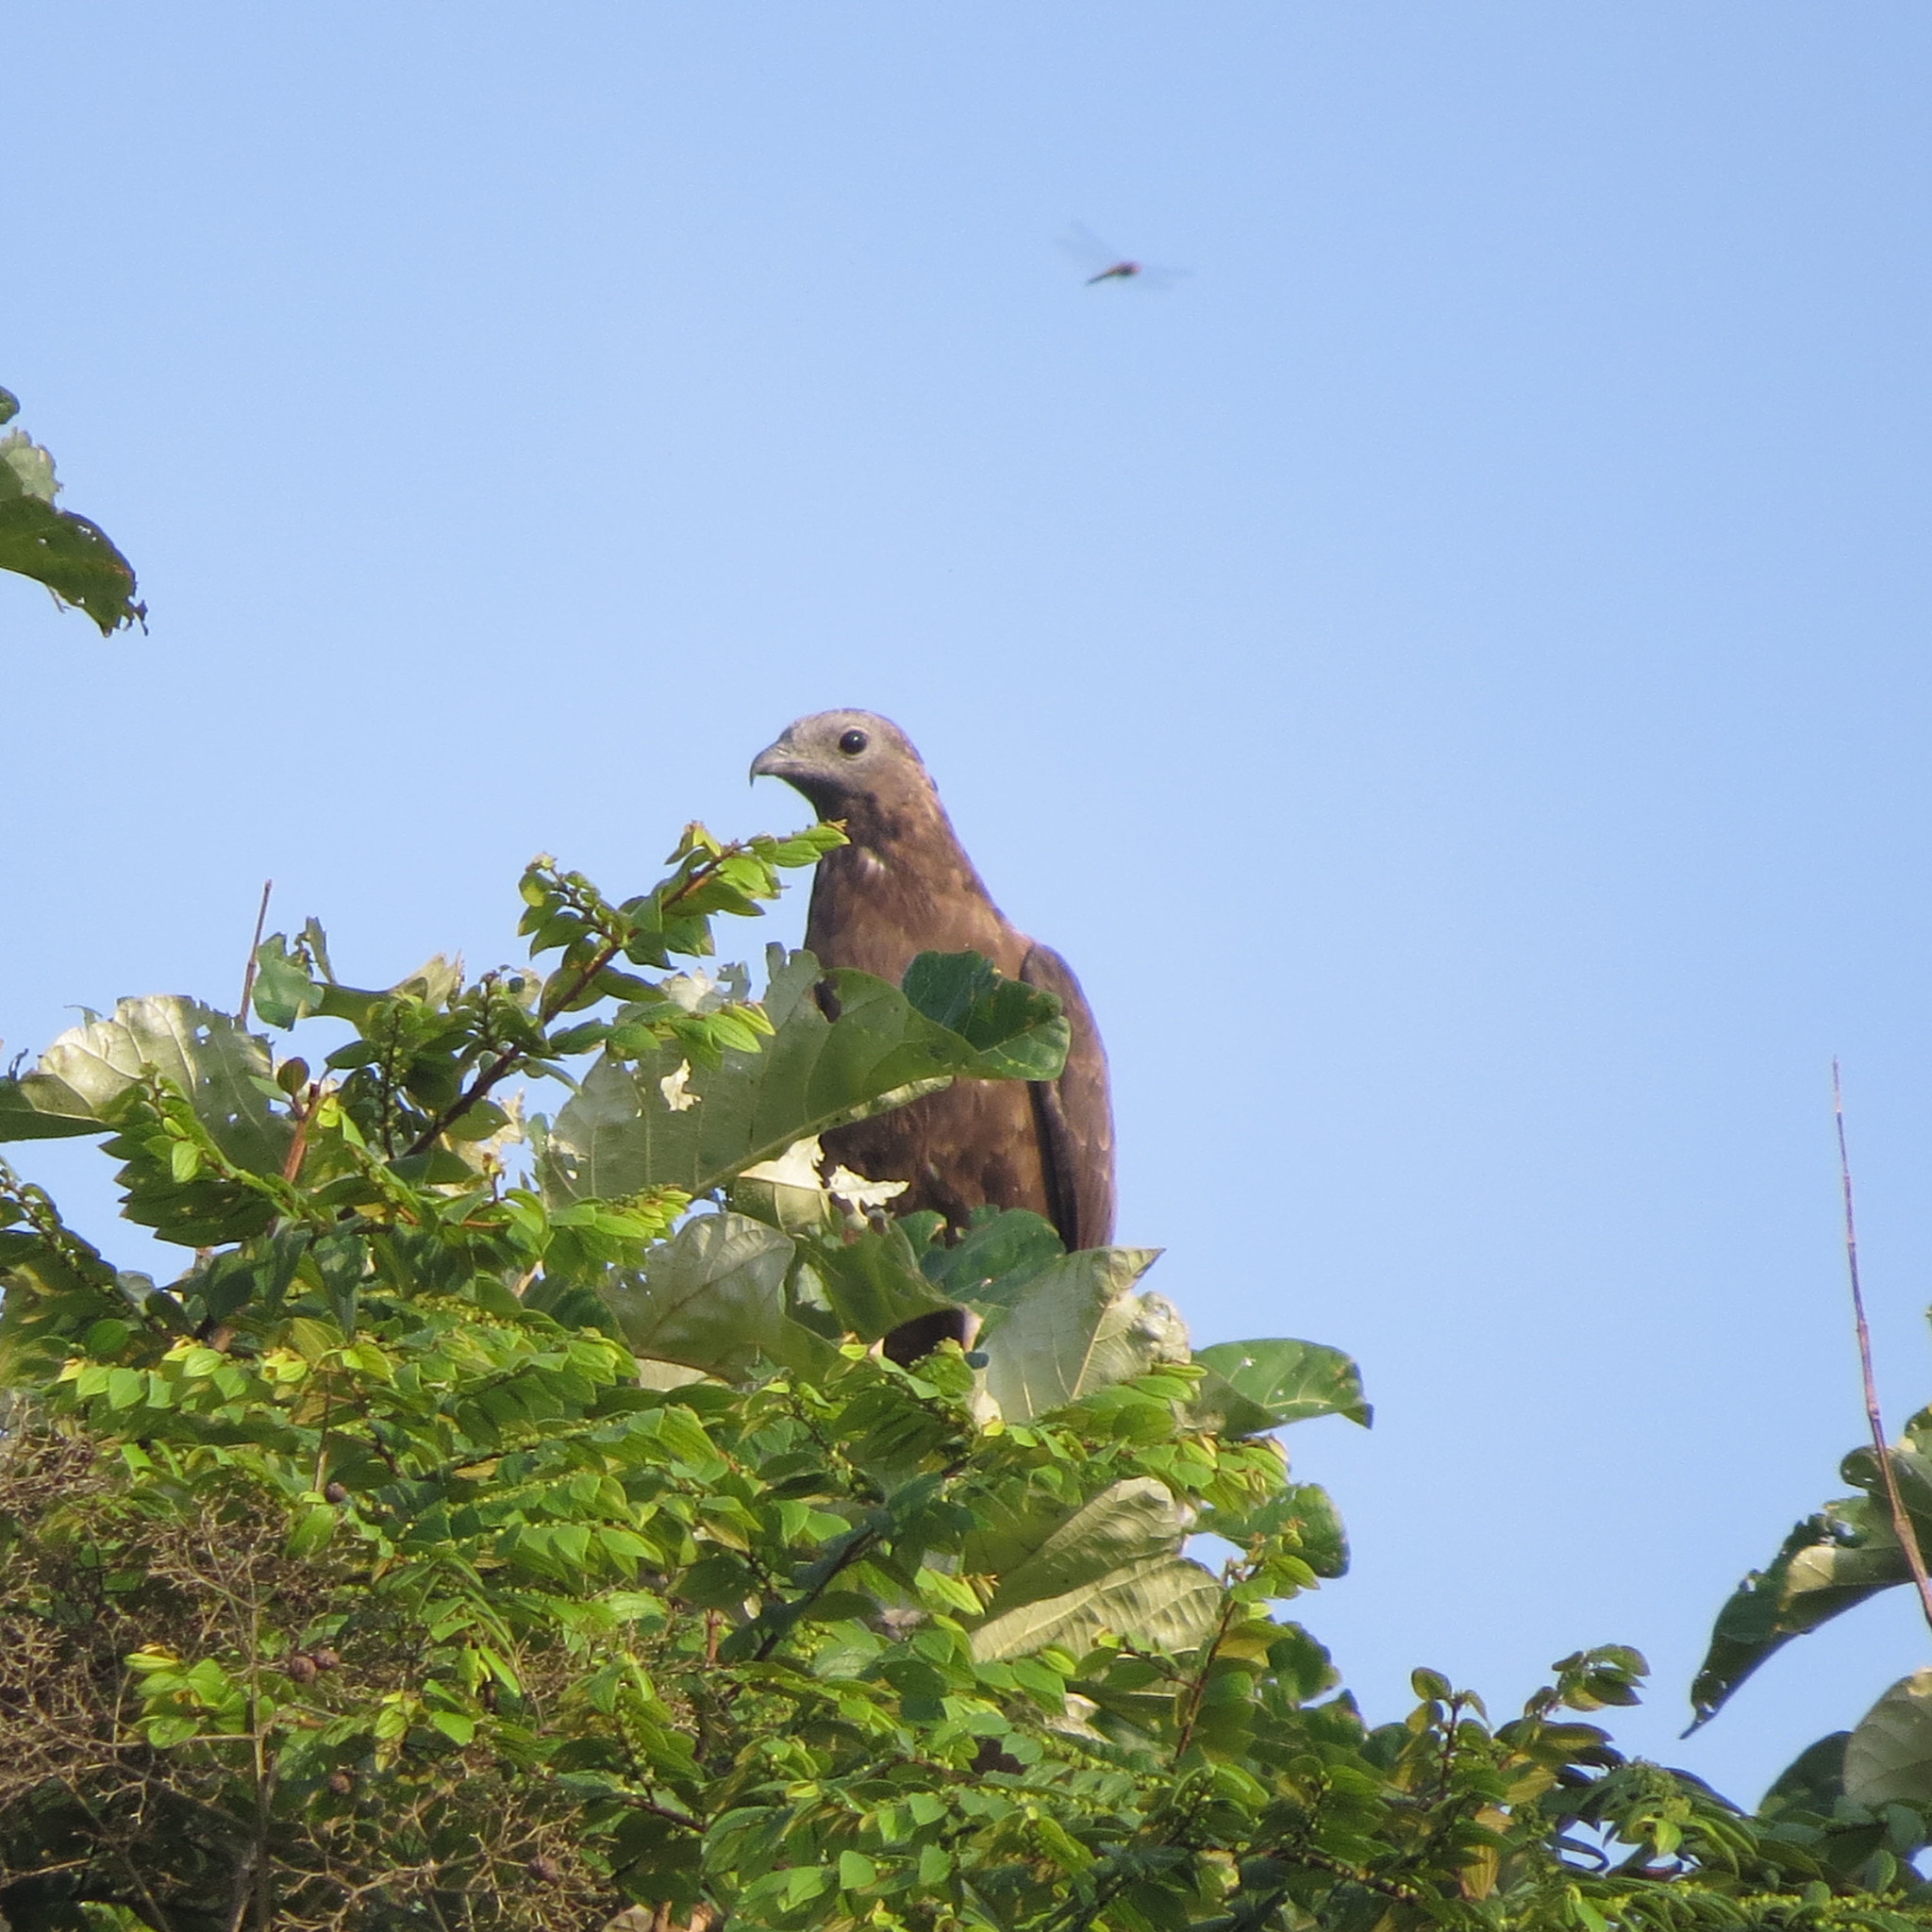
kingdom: Animalia
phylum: Chordata
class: Aves
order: Accipitriformes
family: Accipitridae
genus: Pernis
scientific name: Pernis ptilorhynchus
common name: Crested honey buzzard
